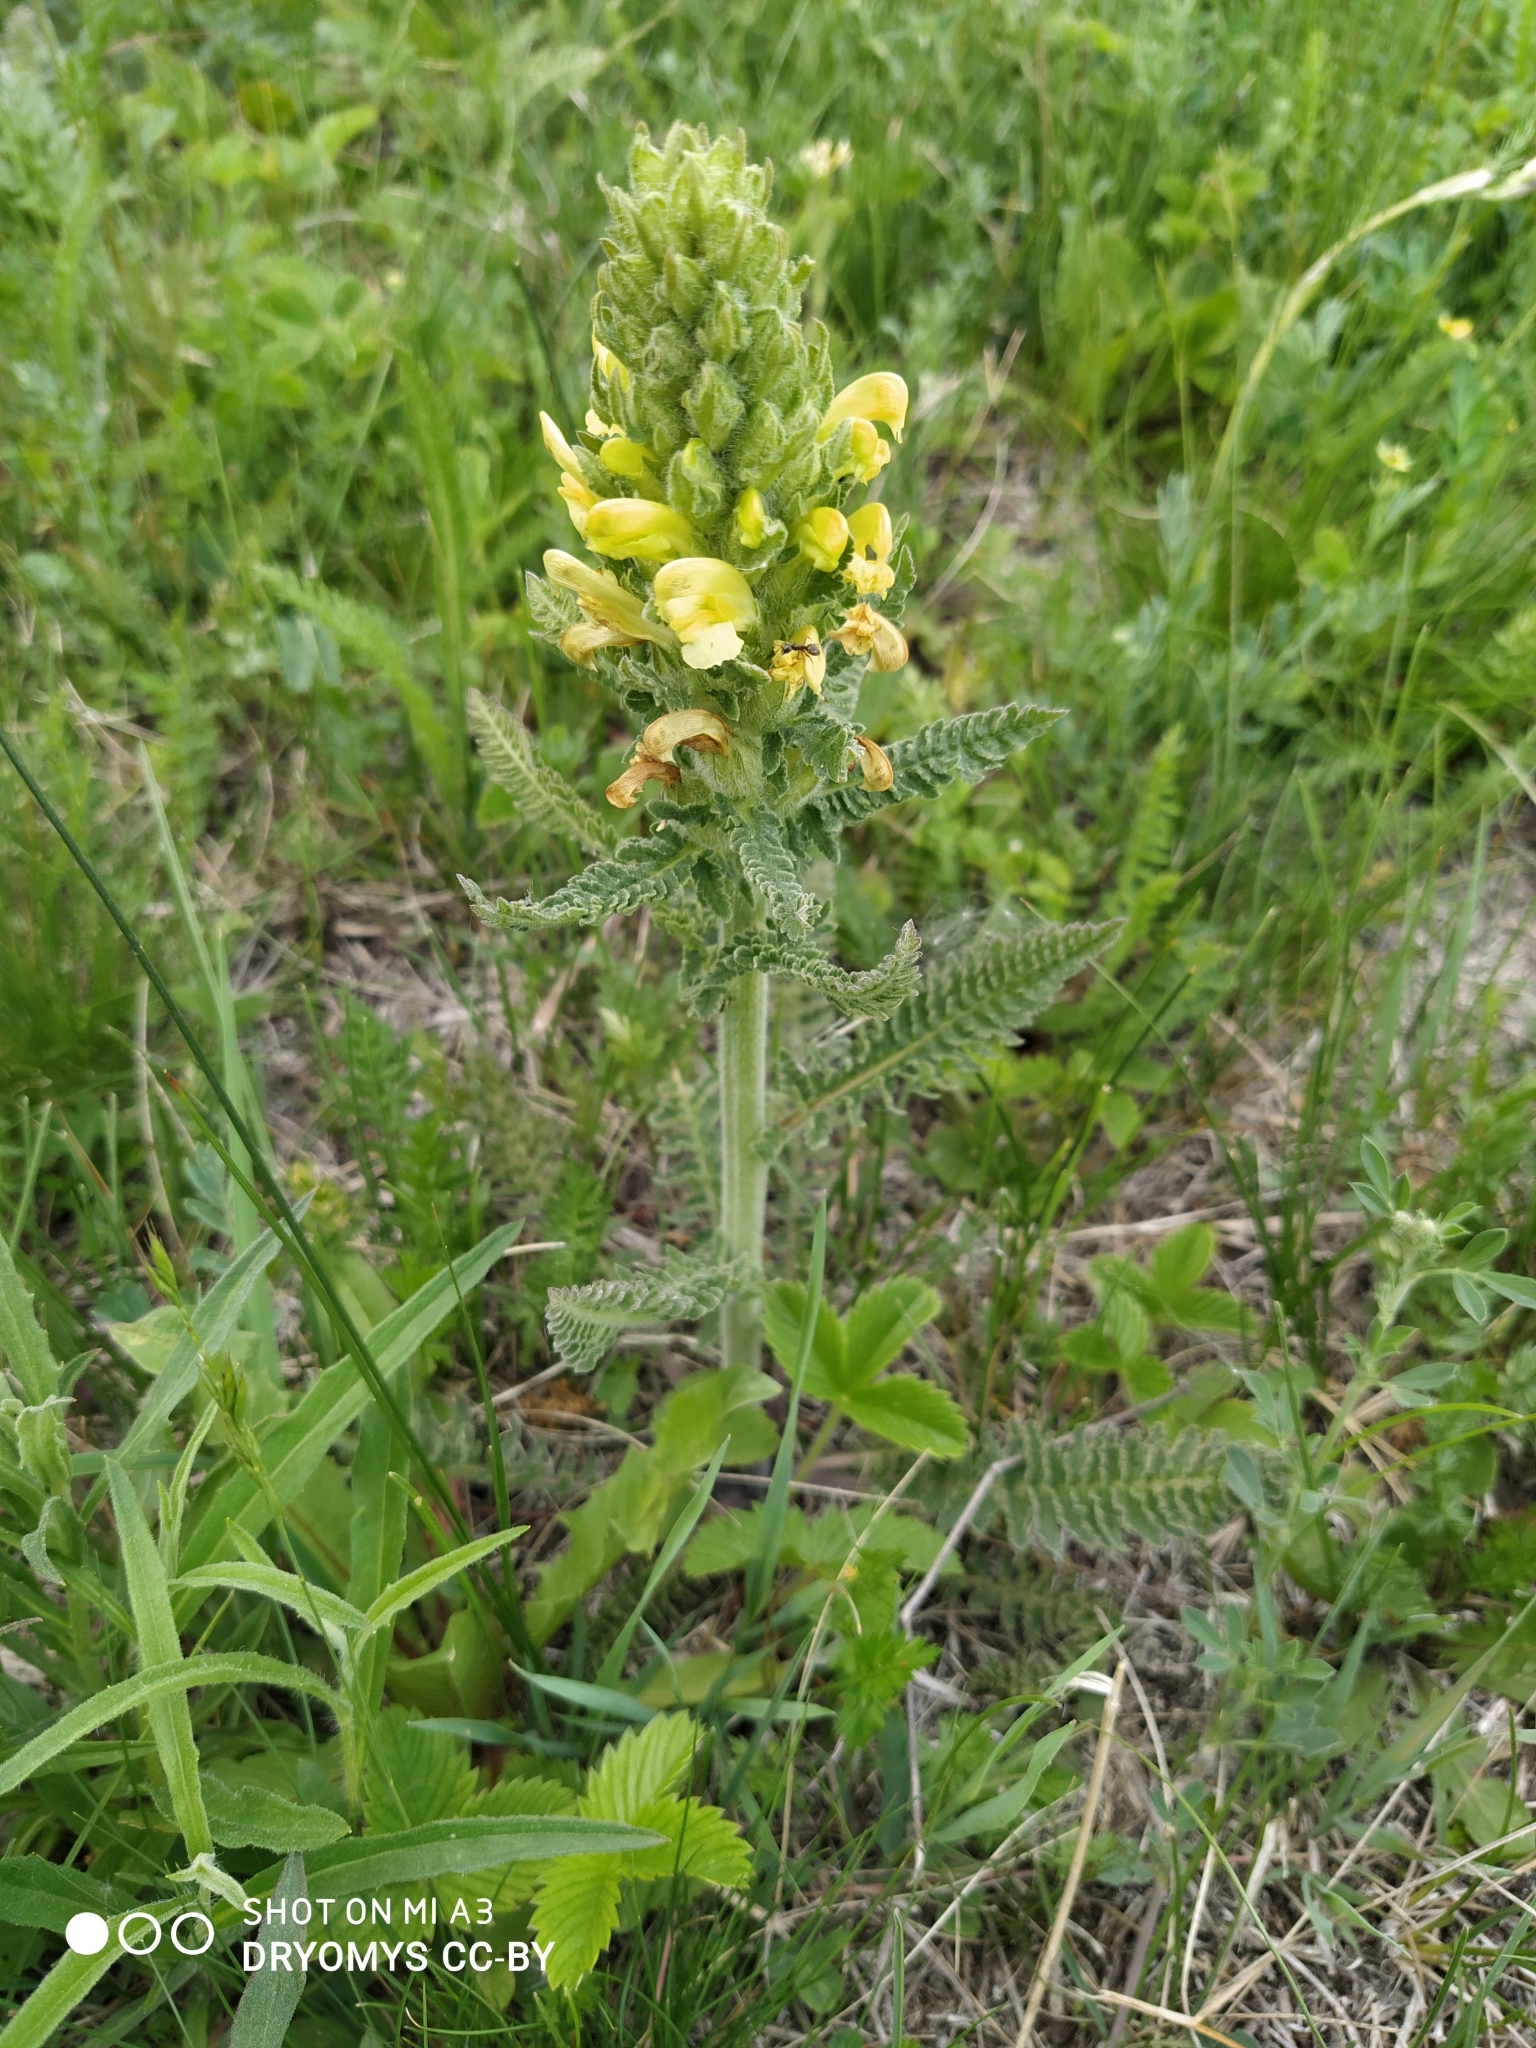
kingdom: Plantae
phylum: Tracheophyta
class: Magnoliopsida
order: Lamiales
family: Orobanchaceae
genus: Pedicularis
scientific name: Pedicularis kaufmannii
